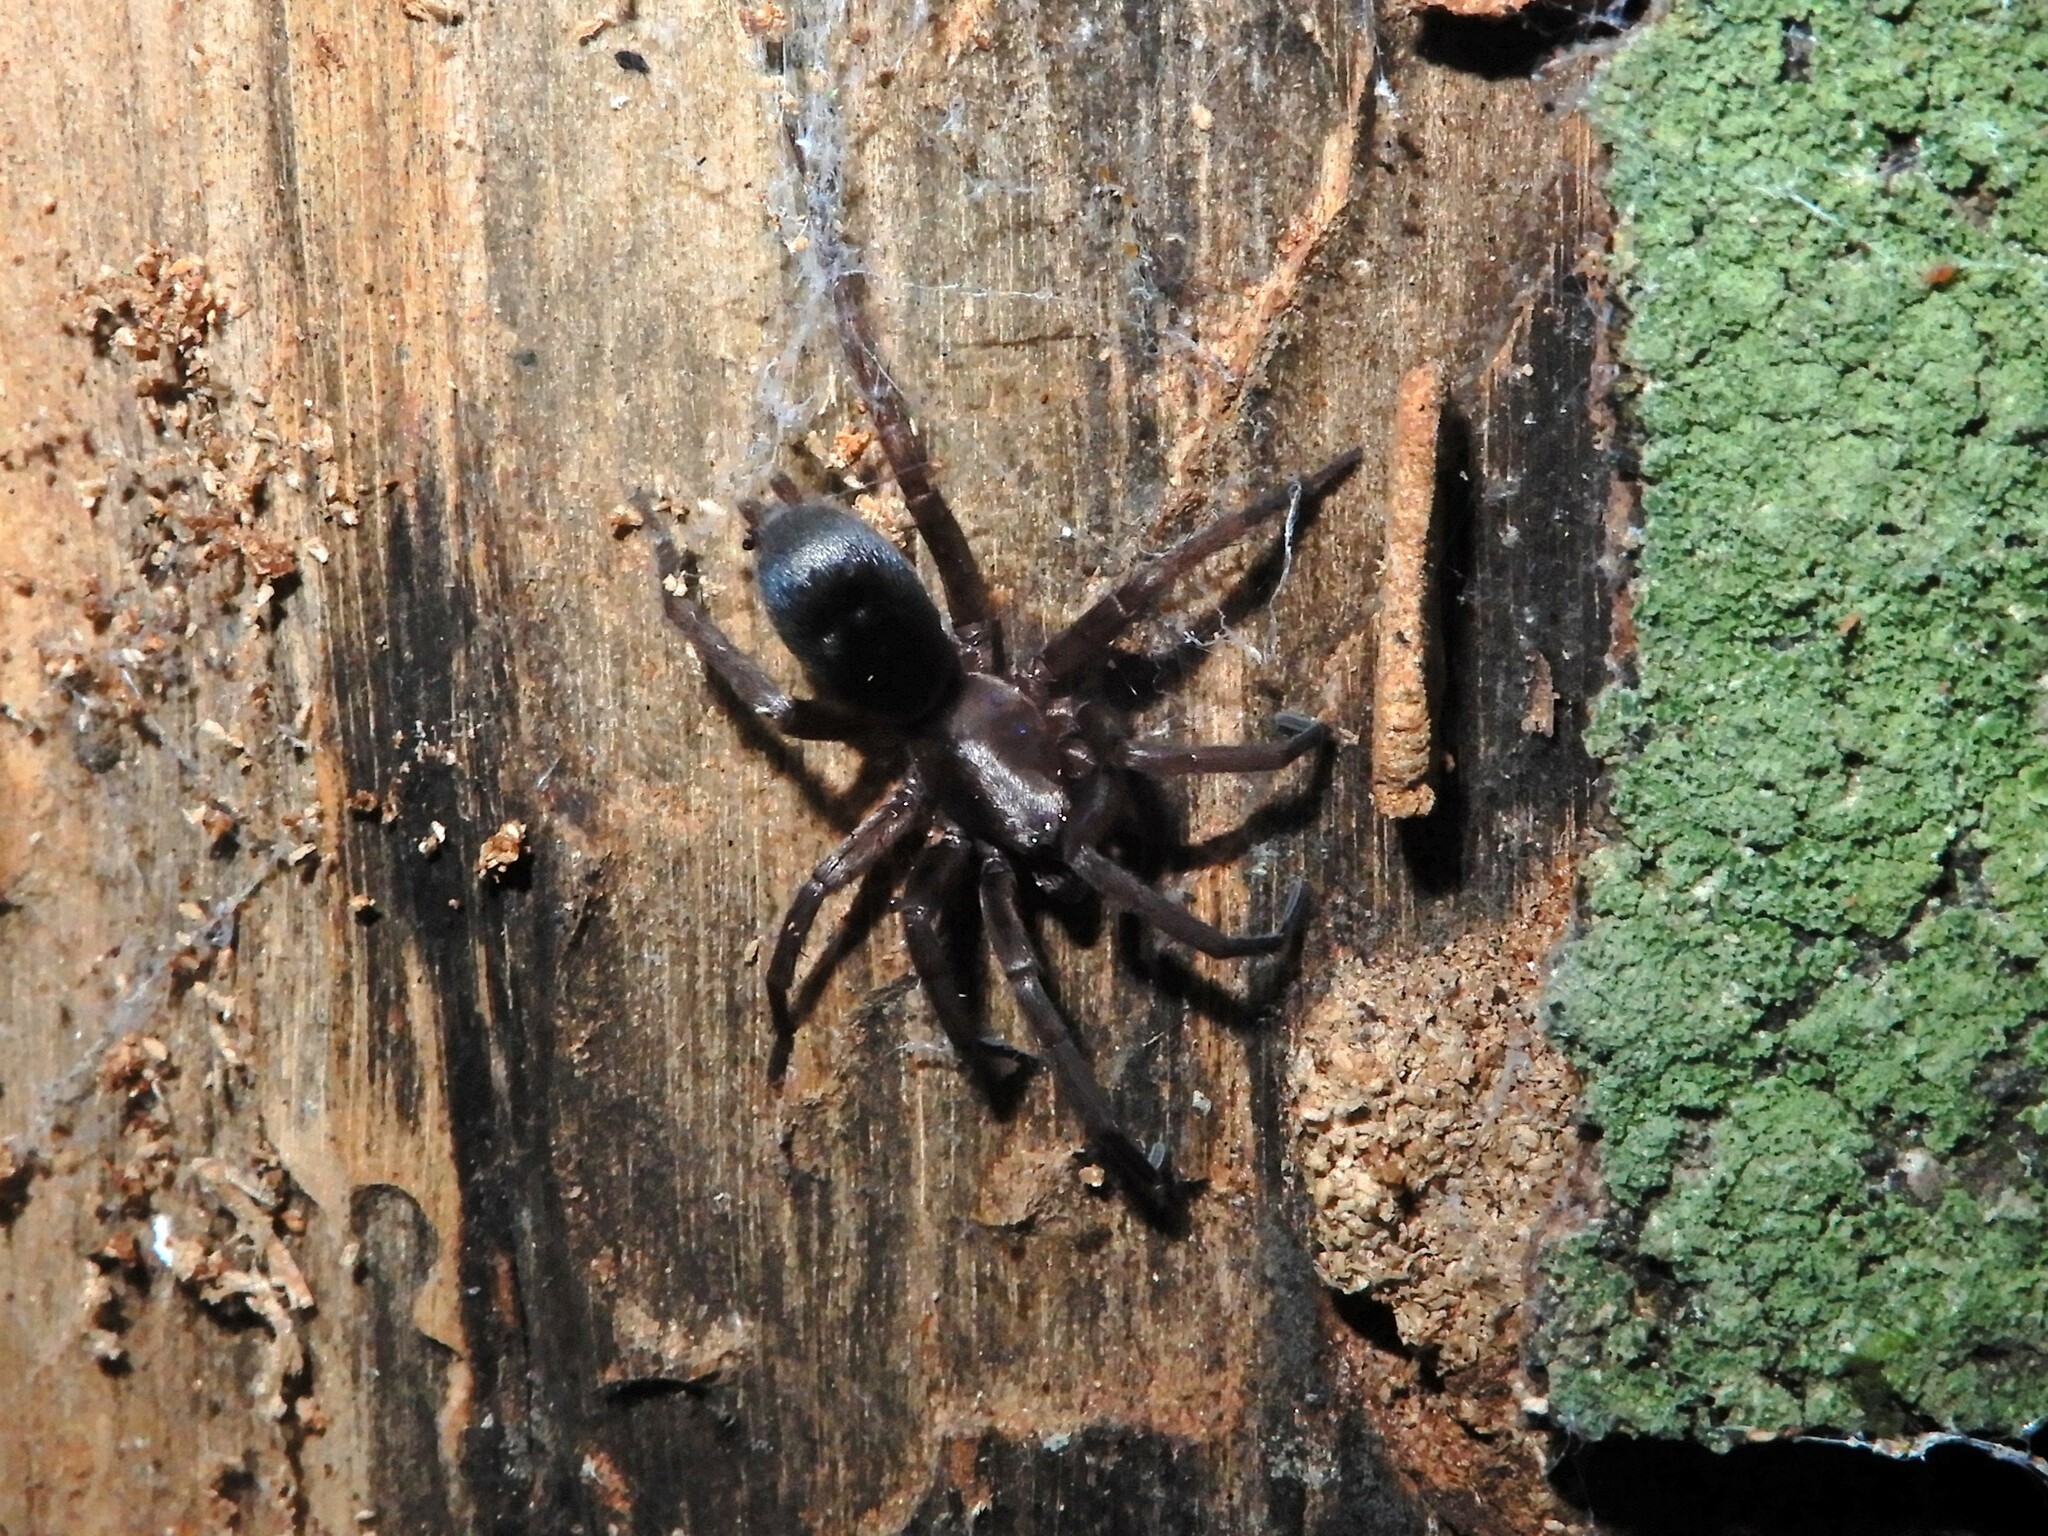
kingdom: Animalia
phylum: Arthropoda
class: Arachnida
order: Araneae
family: Gnaphosidae
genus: Hypodrassodes
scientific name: Hypodrassodes maoricus
